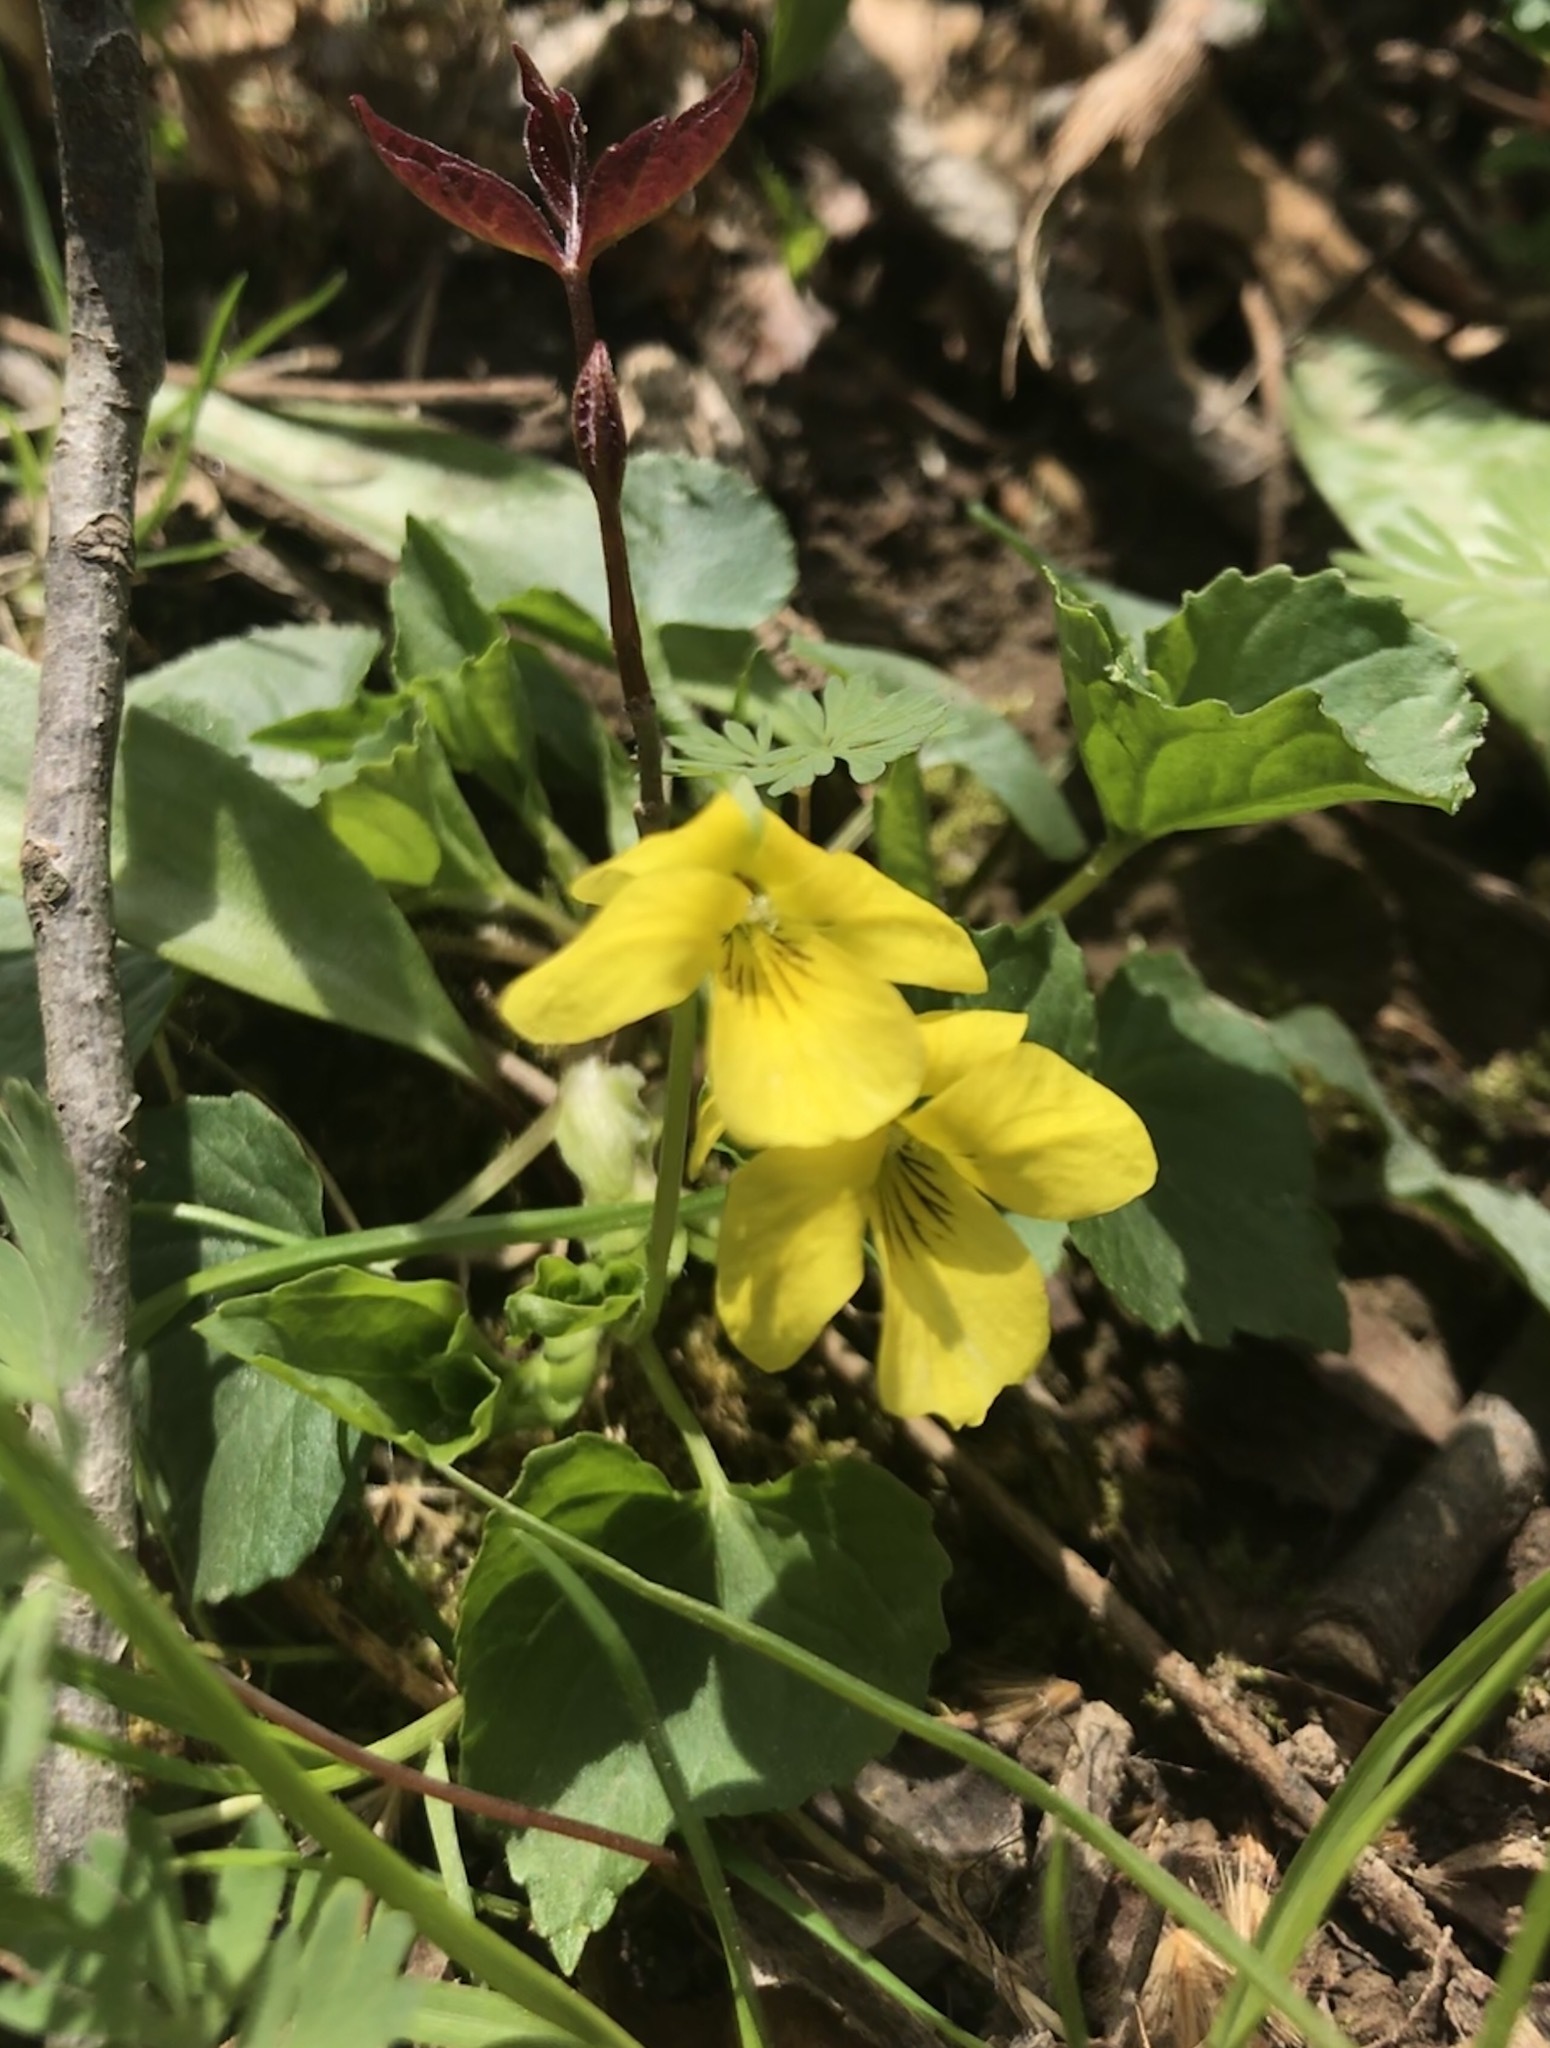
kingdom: Plantae
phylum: Tracheophyta
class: Magnoliopsida
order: Malpighiales
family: Violaceae
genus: Viola
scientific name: Viola eriocarpa
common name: Smooth yellow violet
